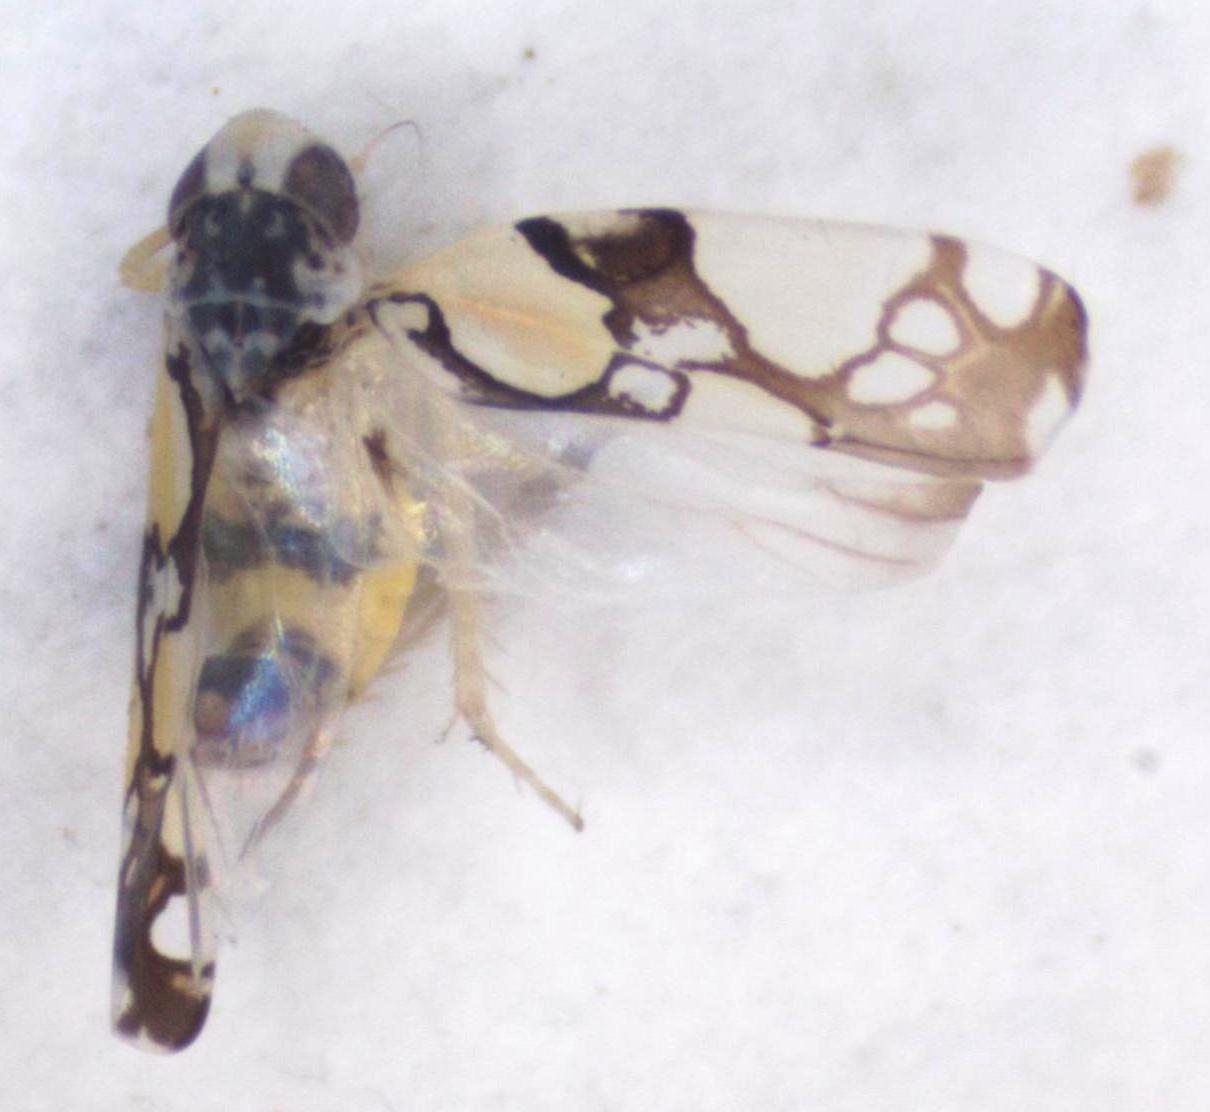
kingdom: Animalia
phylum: Arthropoda
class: Insecta
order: Hemiptera
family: Cicadellidae
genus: Protalebrella
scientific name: Protalebrella brasiliensis
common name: Brasilian leafhopper
